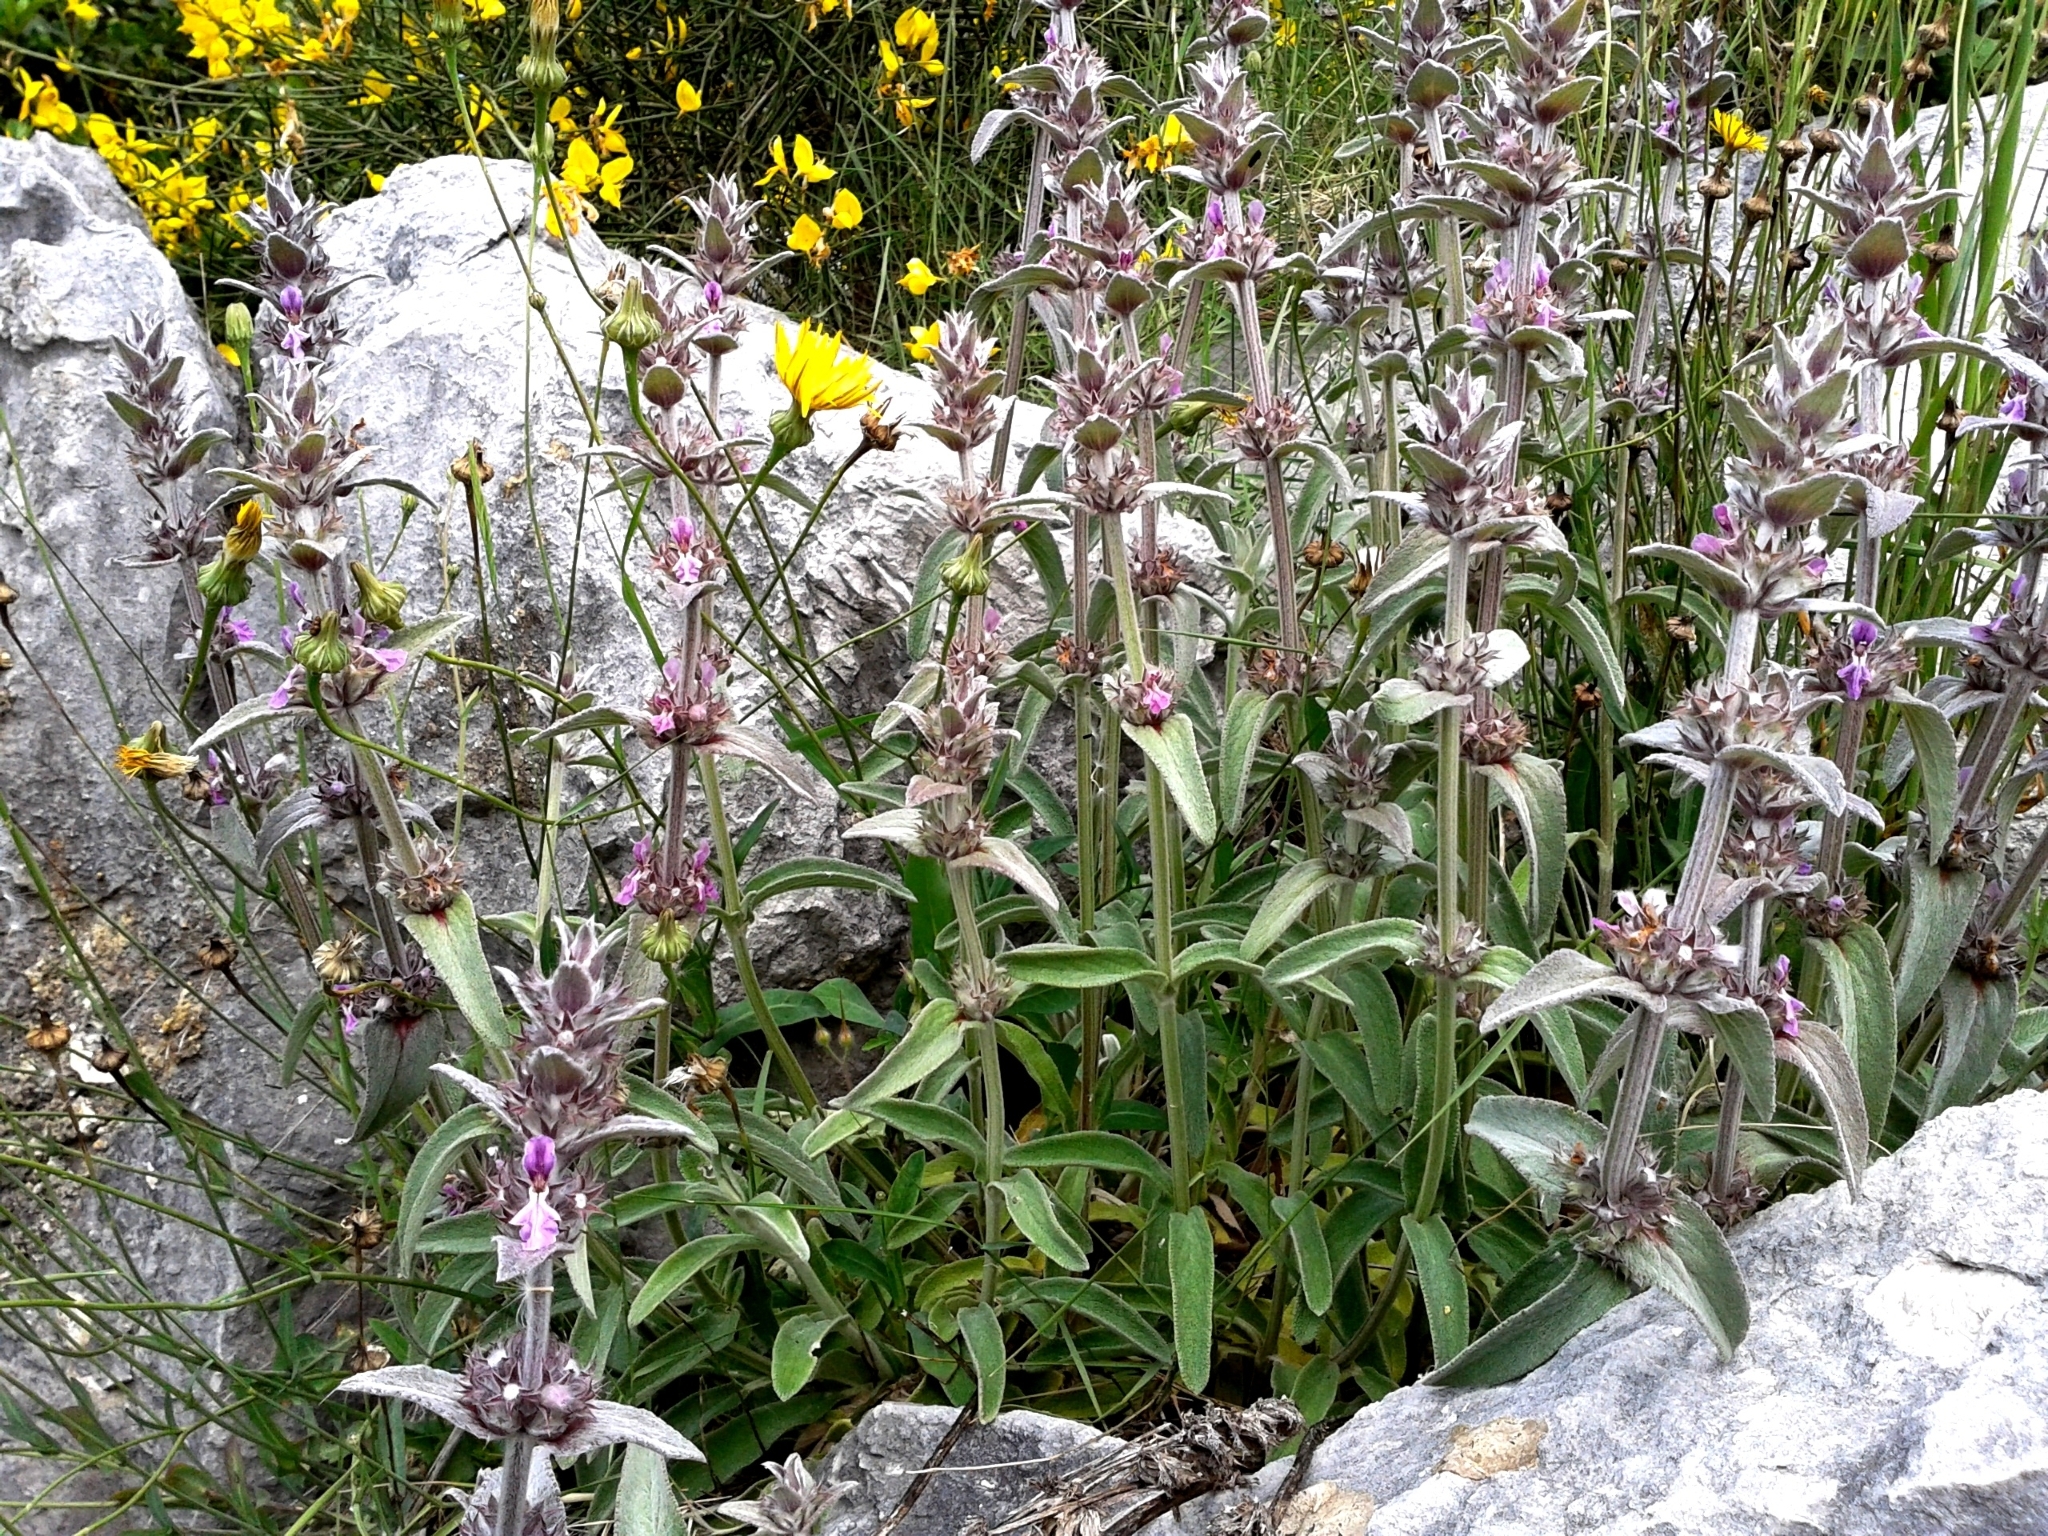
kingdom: Plantae
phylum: Tracheophyta
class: Magnoliopsida
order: Lamiales
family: Lamiaceae
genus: Stachys
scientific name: Stachys cretica
